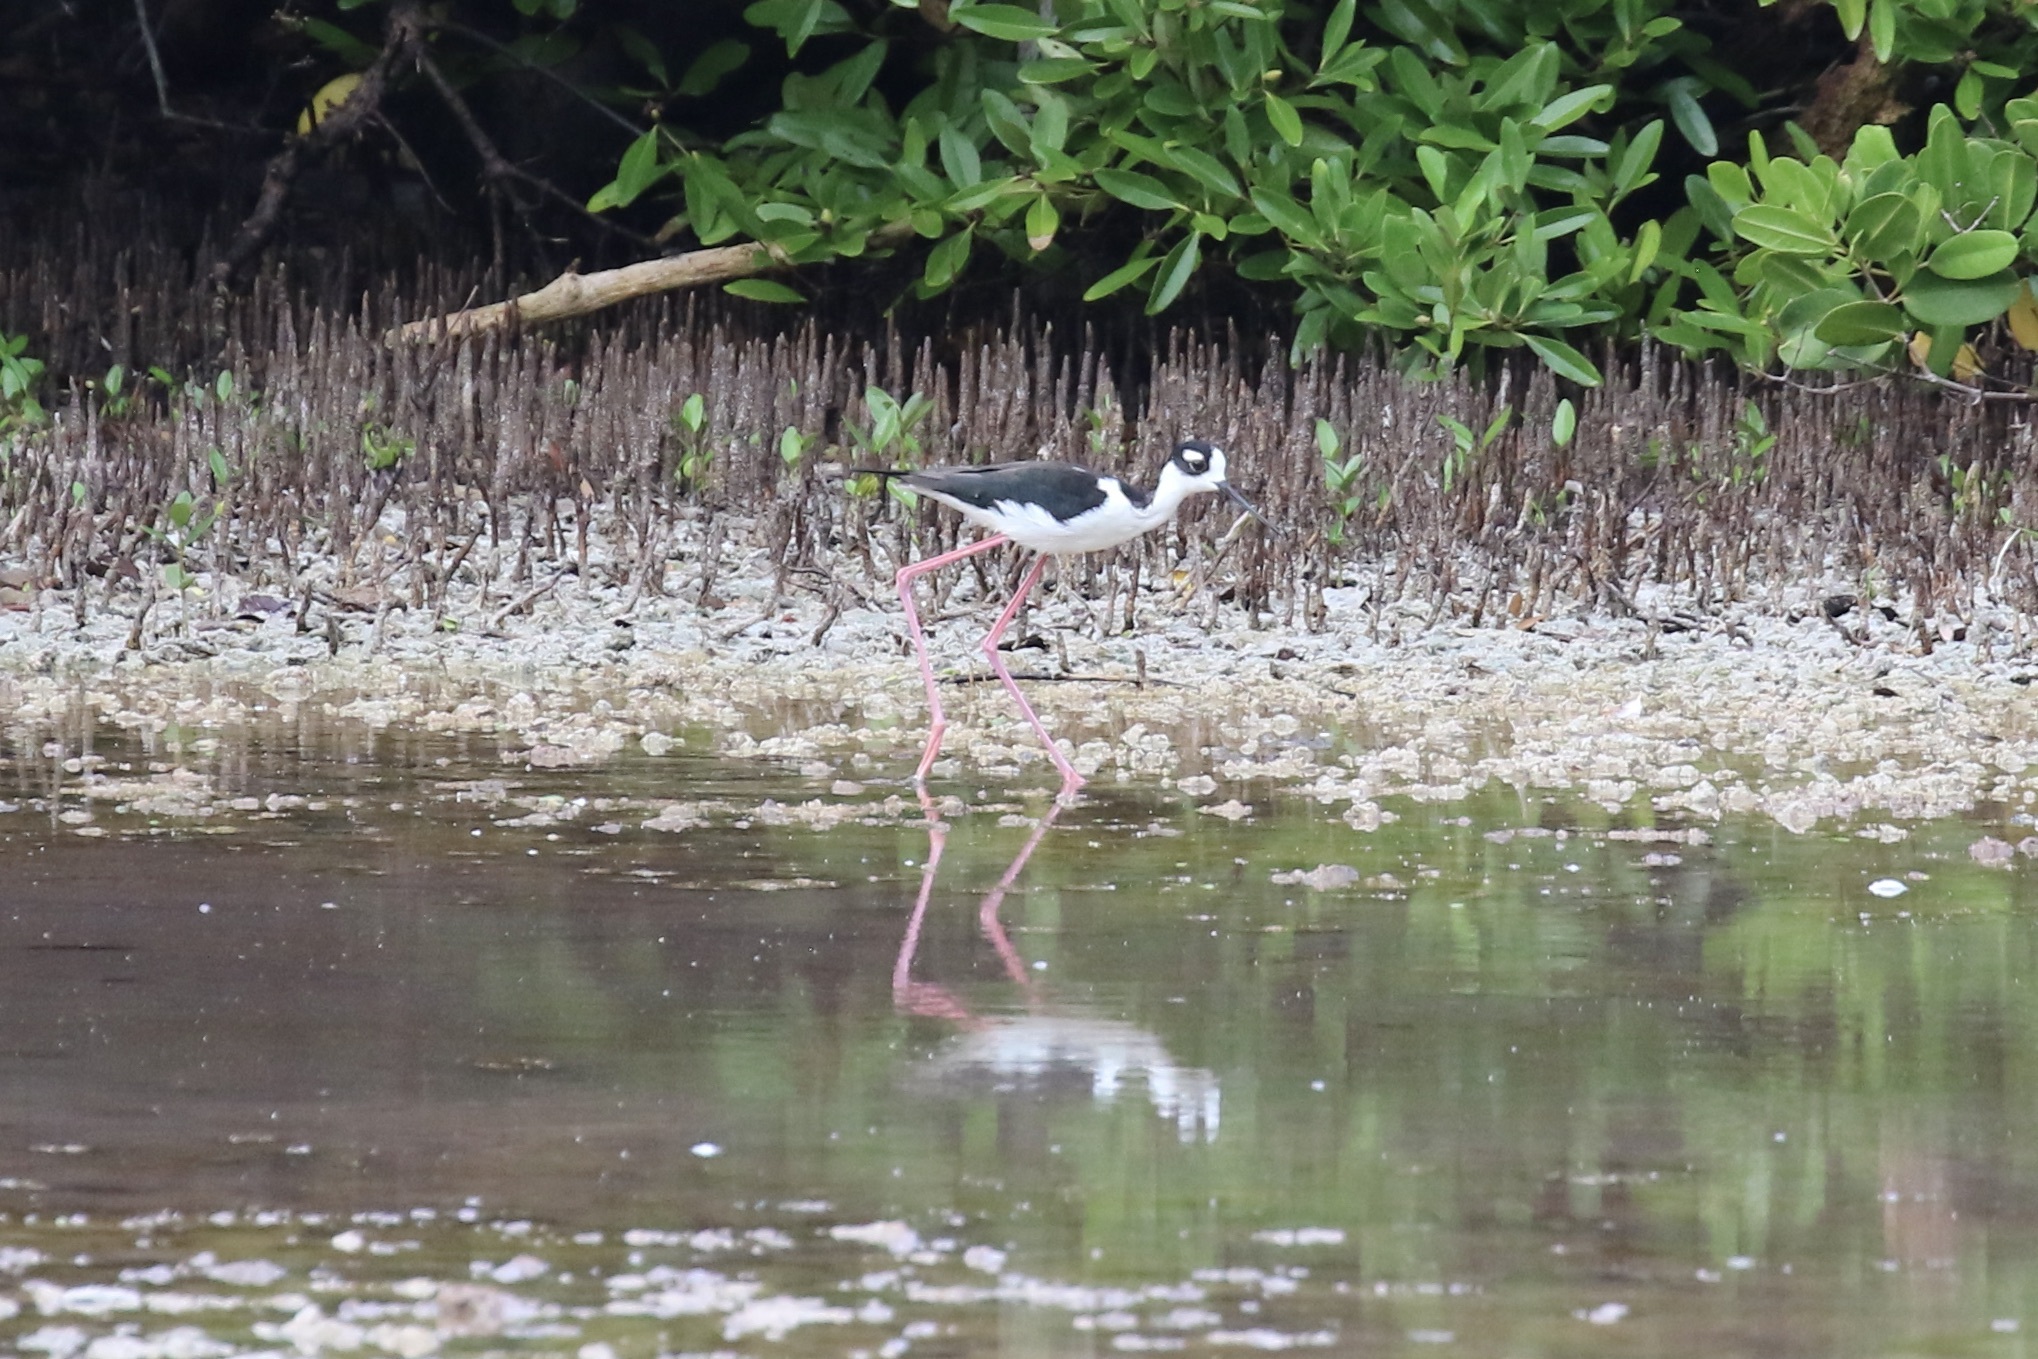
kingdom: Animalia
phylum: Chordata
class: Aves
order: Charadriiformes
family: Recurvirostridae
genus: Himantopus
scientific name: Himantopus mexicanus
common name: Black-necked stilt
